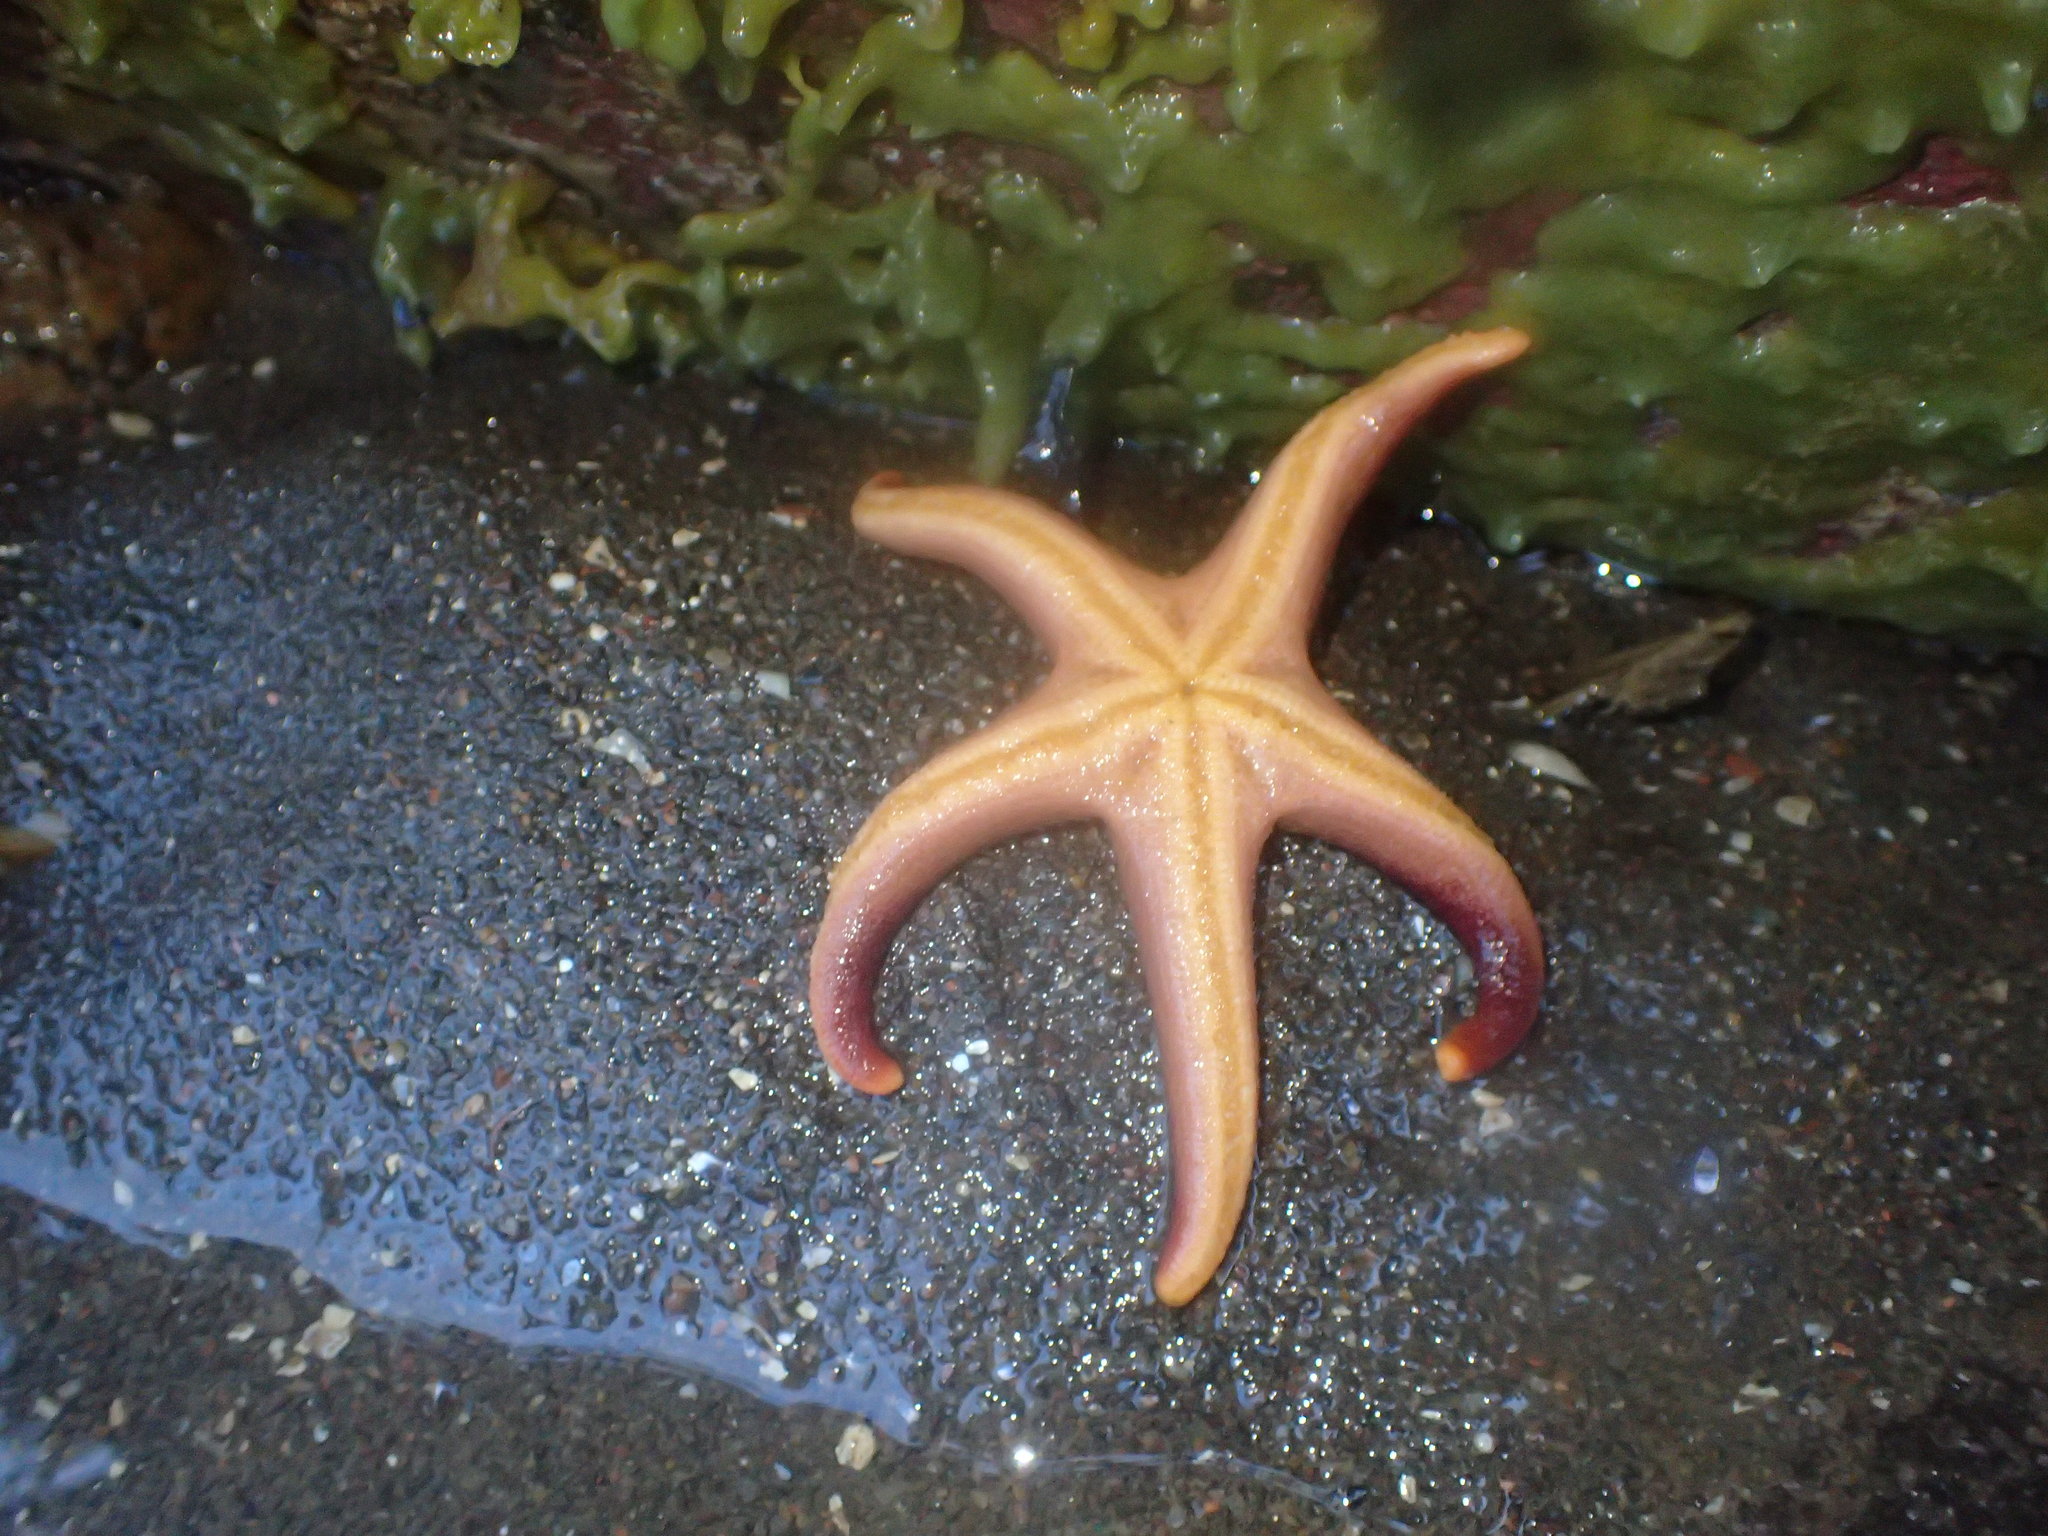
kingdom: Animalia
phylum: Echinodermata
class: Asteroidea
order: Spinulosida
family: Echinasteridae
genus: Henricia
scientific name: Henricia sanguinolenta
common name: Blood star
